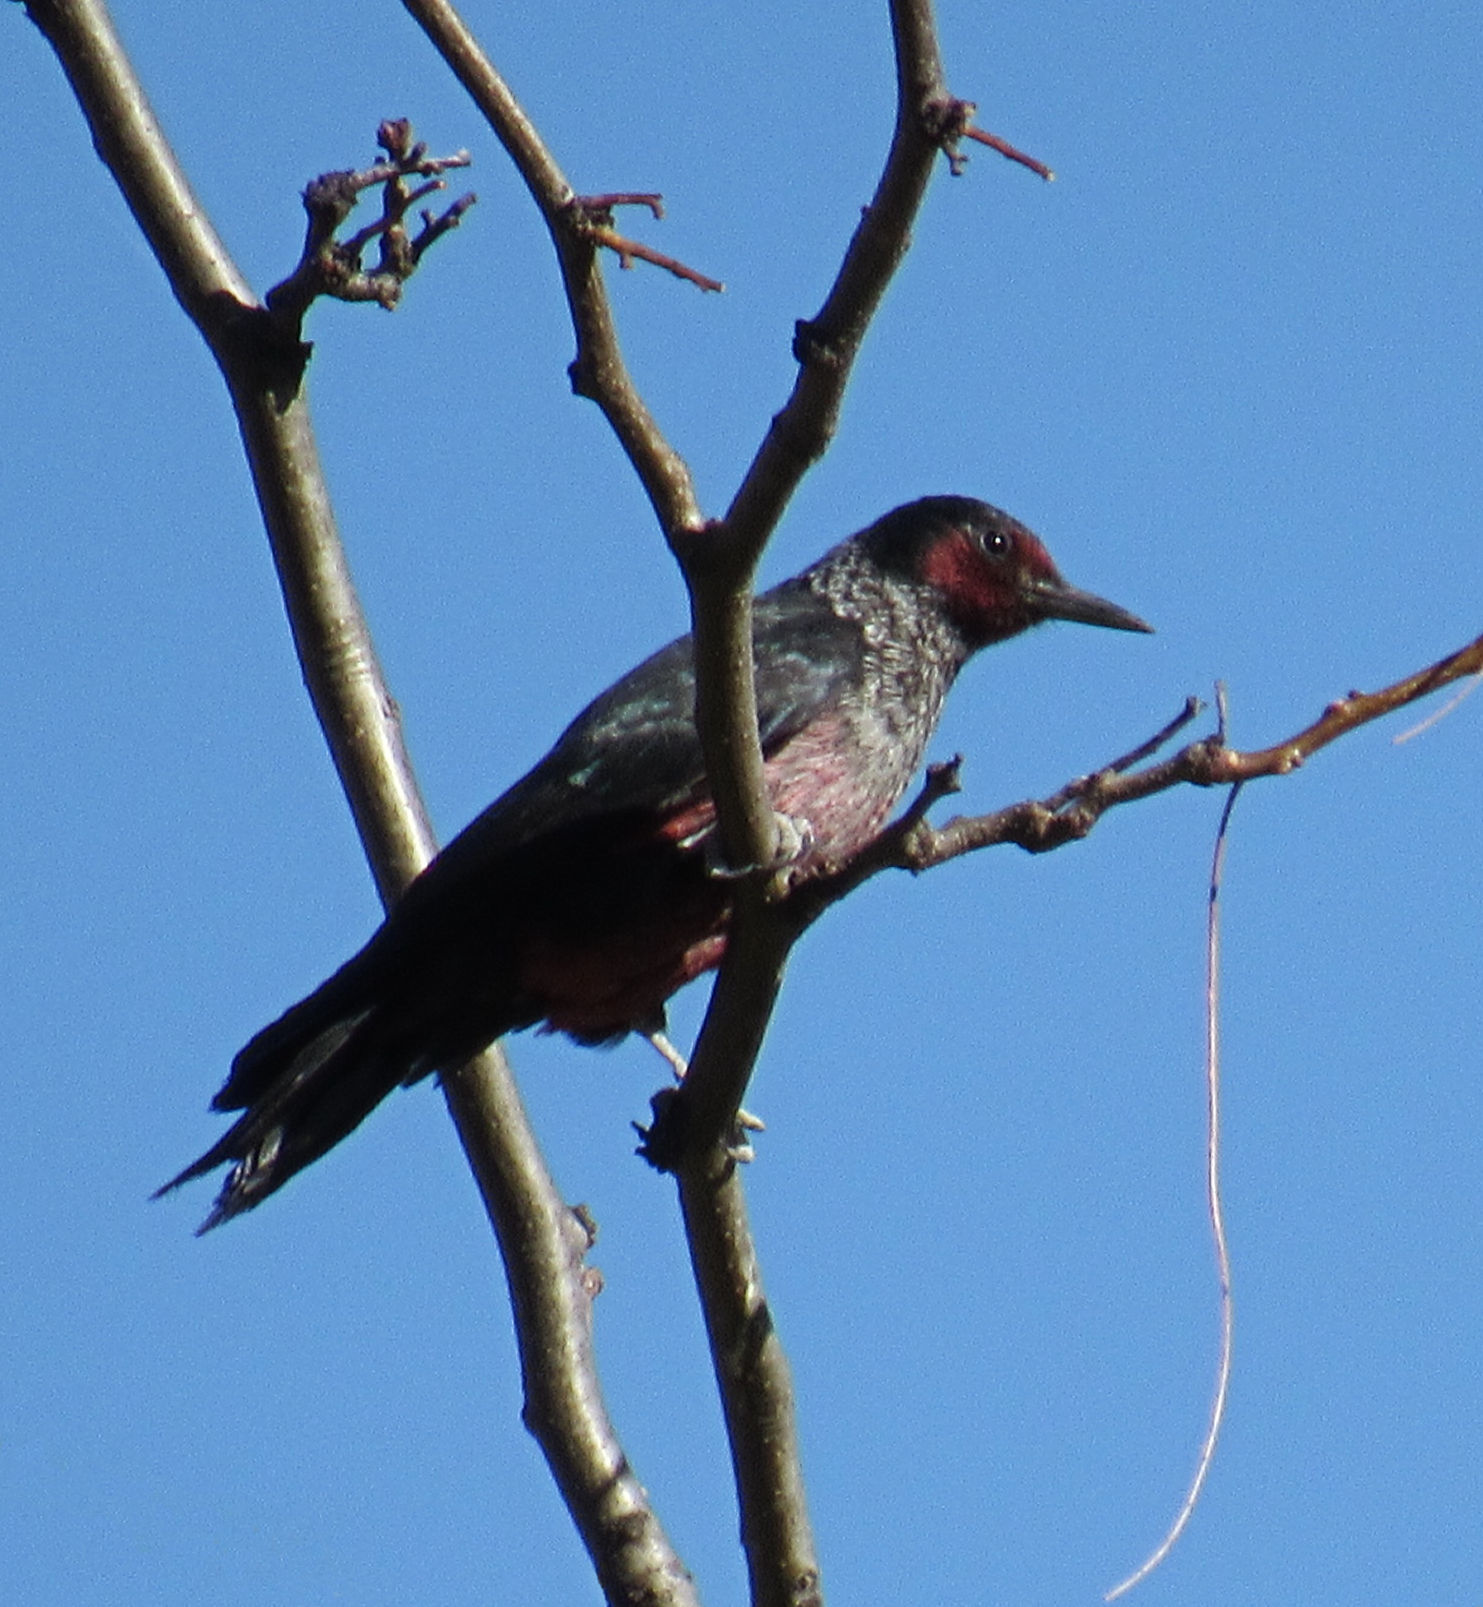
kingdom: Animalia
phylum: Chordata
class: Aves
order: Piciformes
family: Picidae
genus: Melanerpes
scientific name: Melanerpes lewis
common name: Lewis's woodpecker
